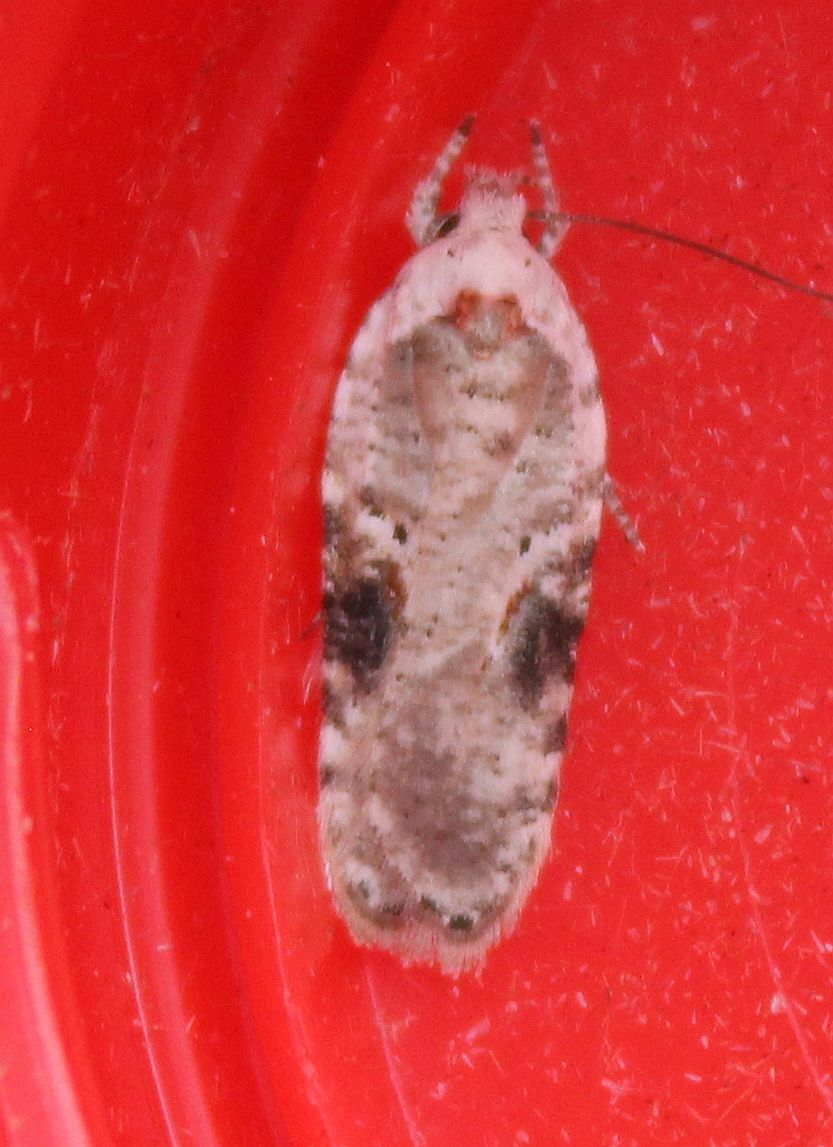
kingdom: Animalia
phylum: Arthropoda
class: Insecta
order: Lepidoptera
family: Depressariidae
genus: Agonopterix
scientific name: Agonopterix alstroemeriana
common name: Moth
